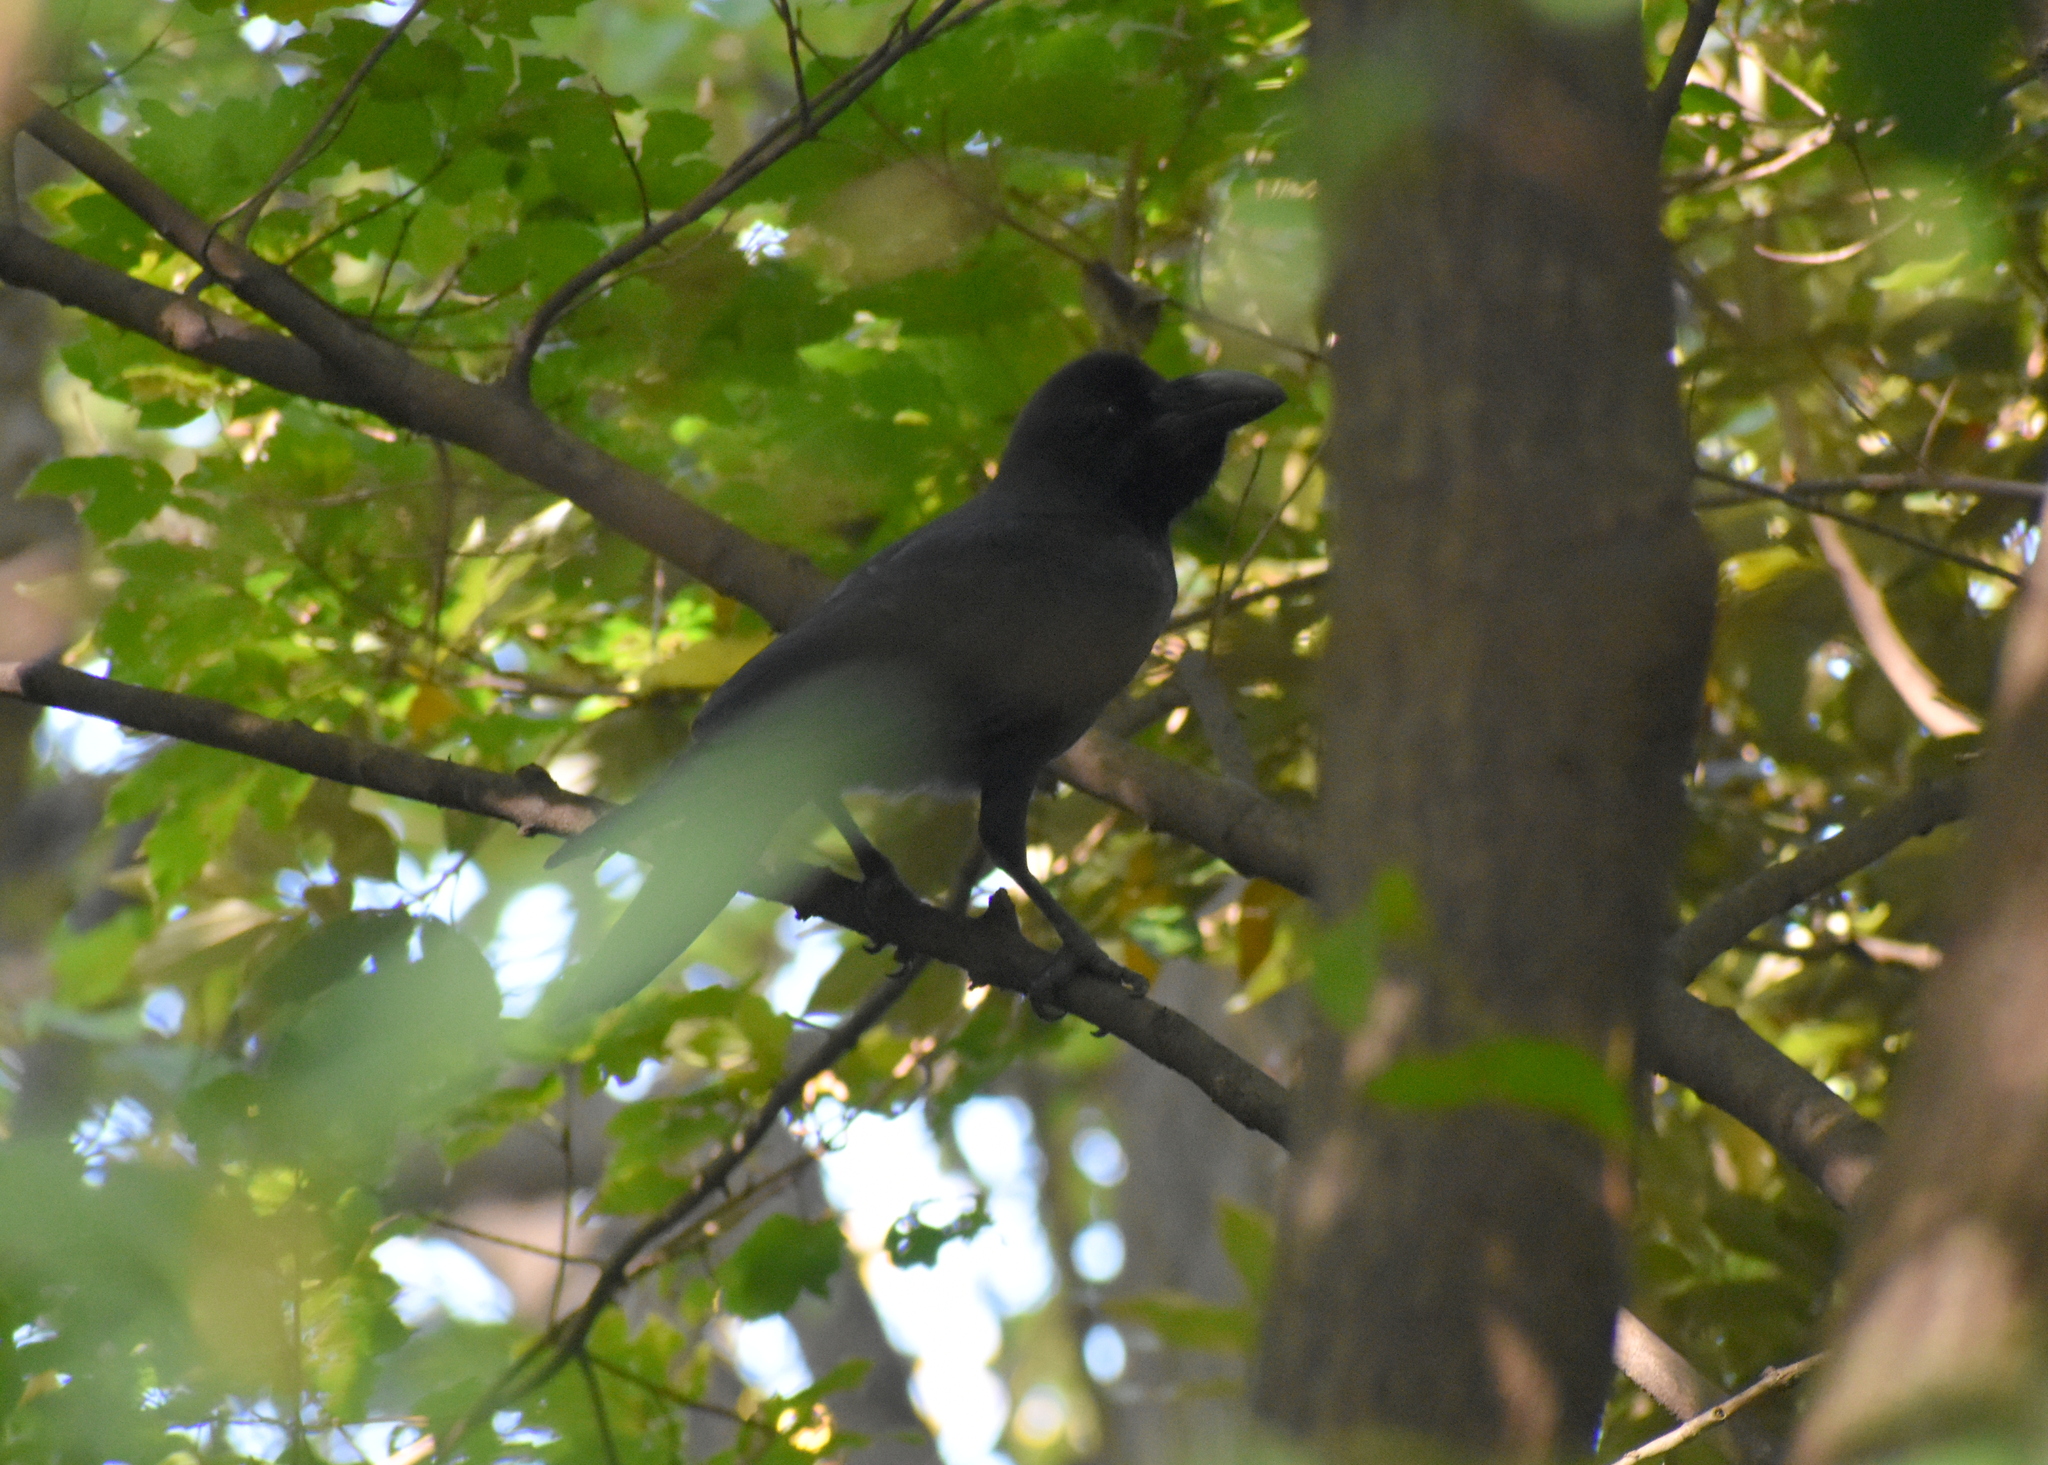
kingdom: Animalia
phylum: Chordata
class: Aves
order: Passeriformes
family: Corvidae
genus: Corvus
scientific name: Corvus macrorhynchos
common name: Large-billed crow
